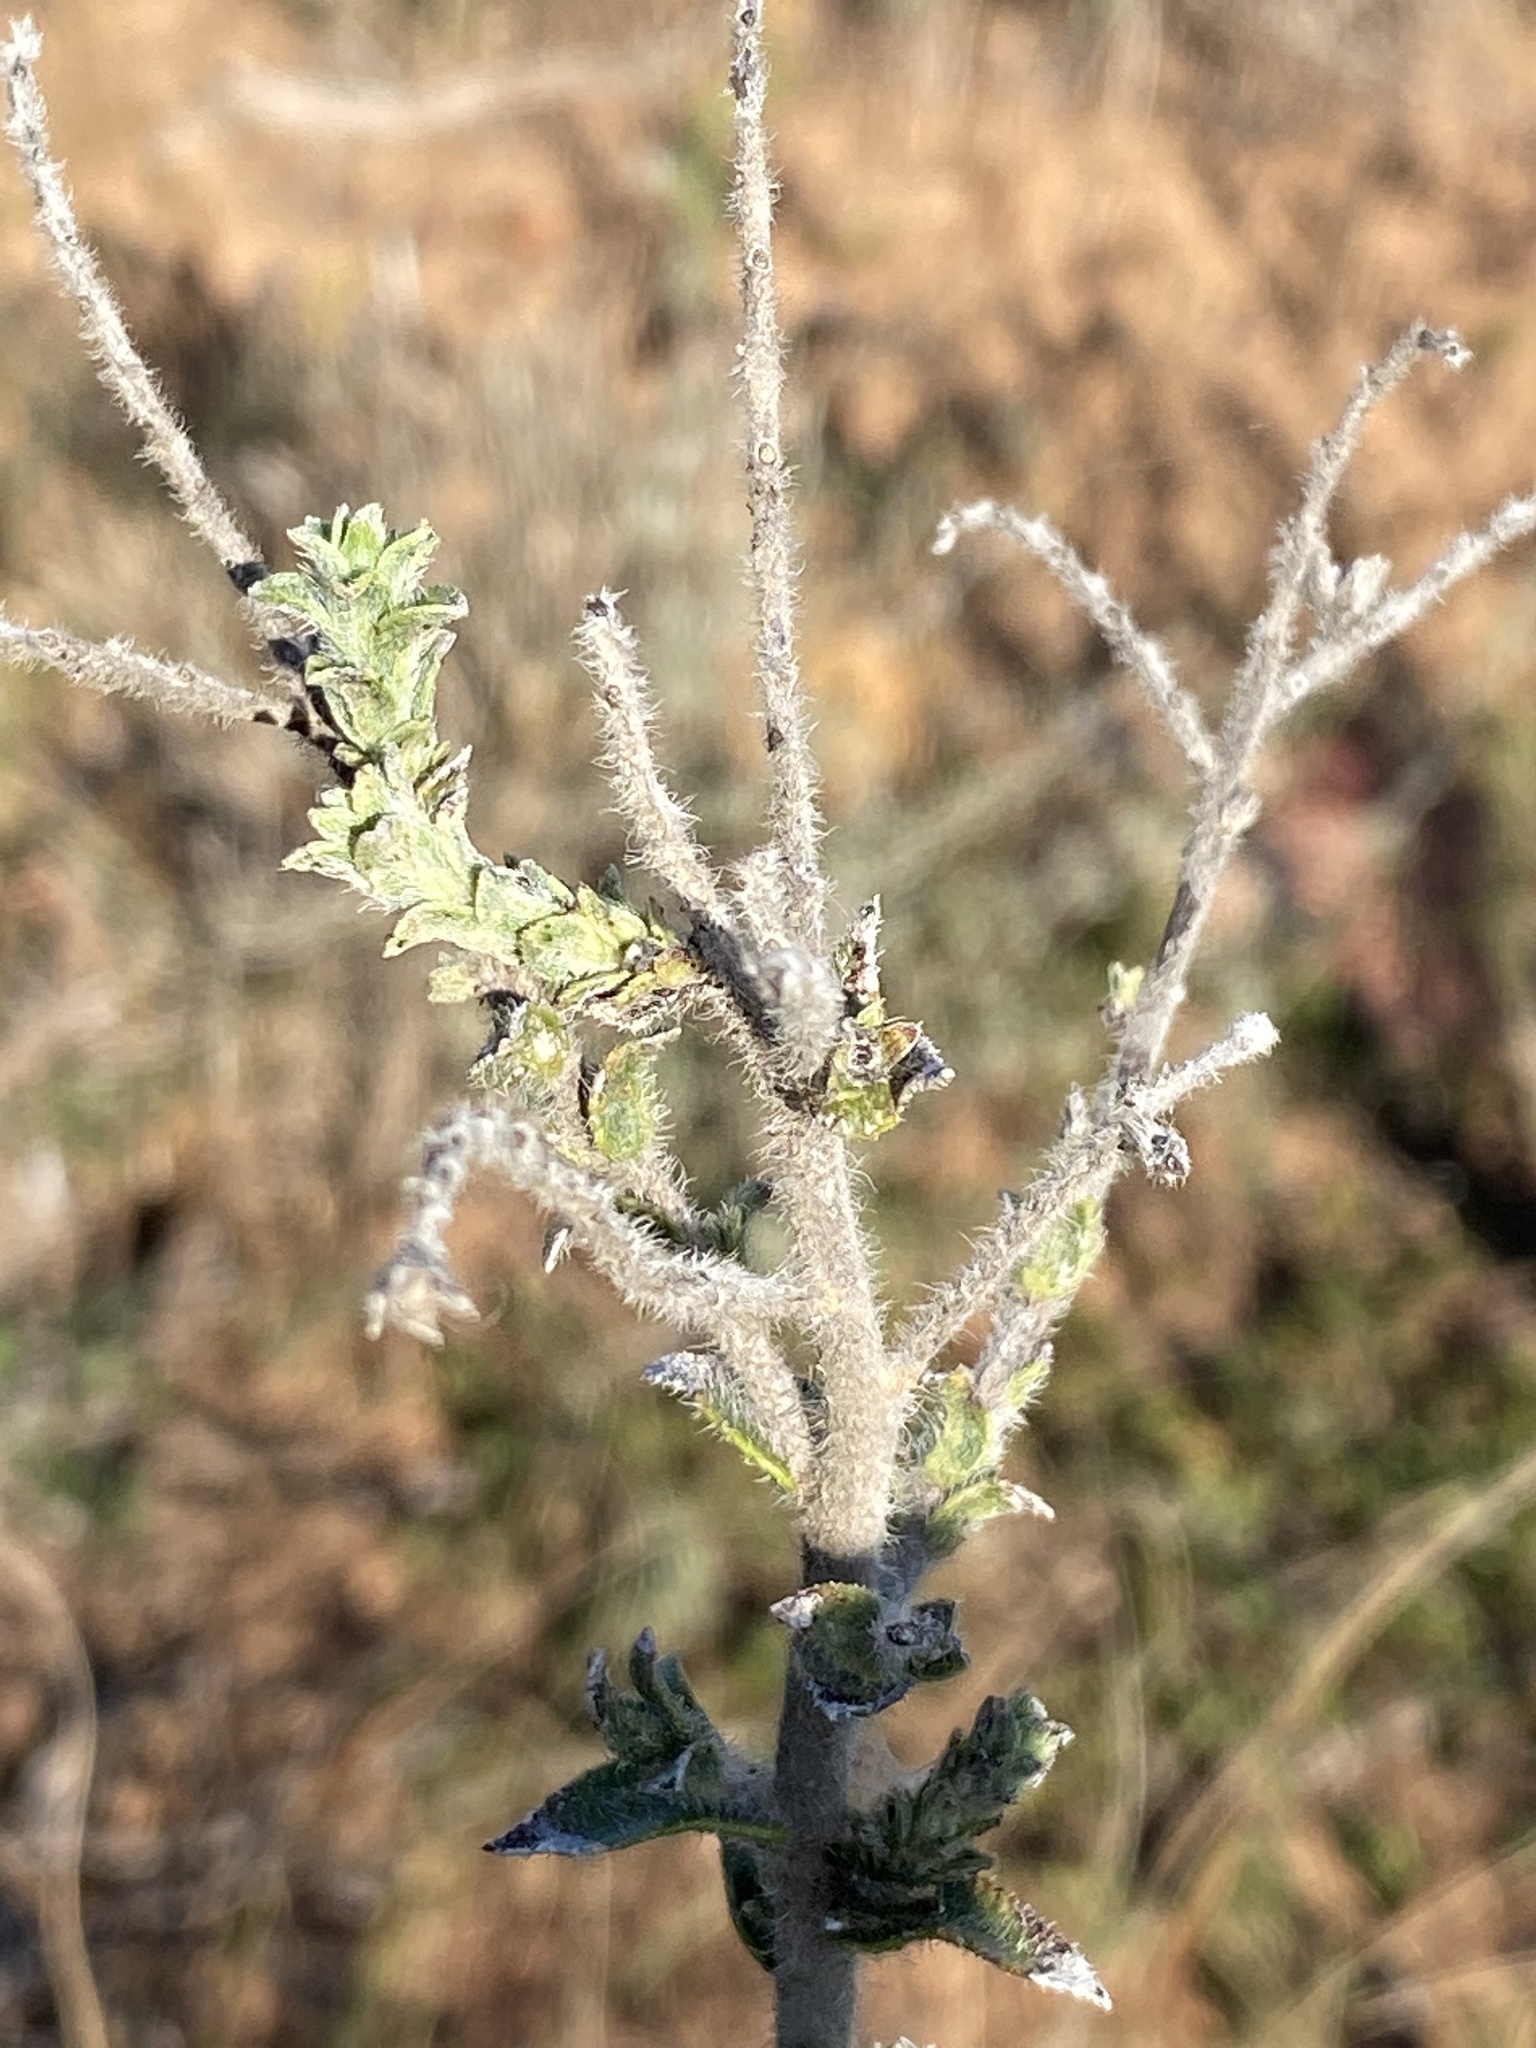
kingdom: Plantae
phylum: Tracheophyta
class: Magnoliopsida
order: Boraginales
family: Boraginaceae
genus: Lobostemon
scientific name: Lobostemon echioides
